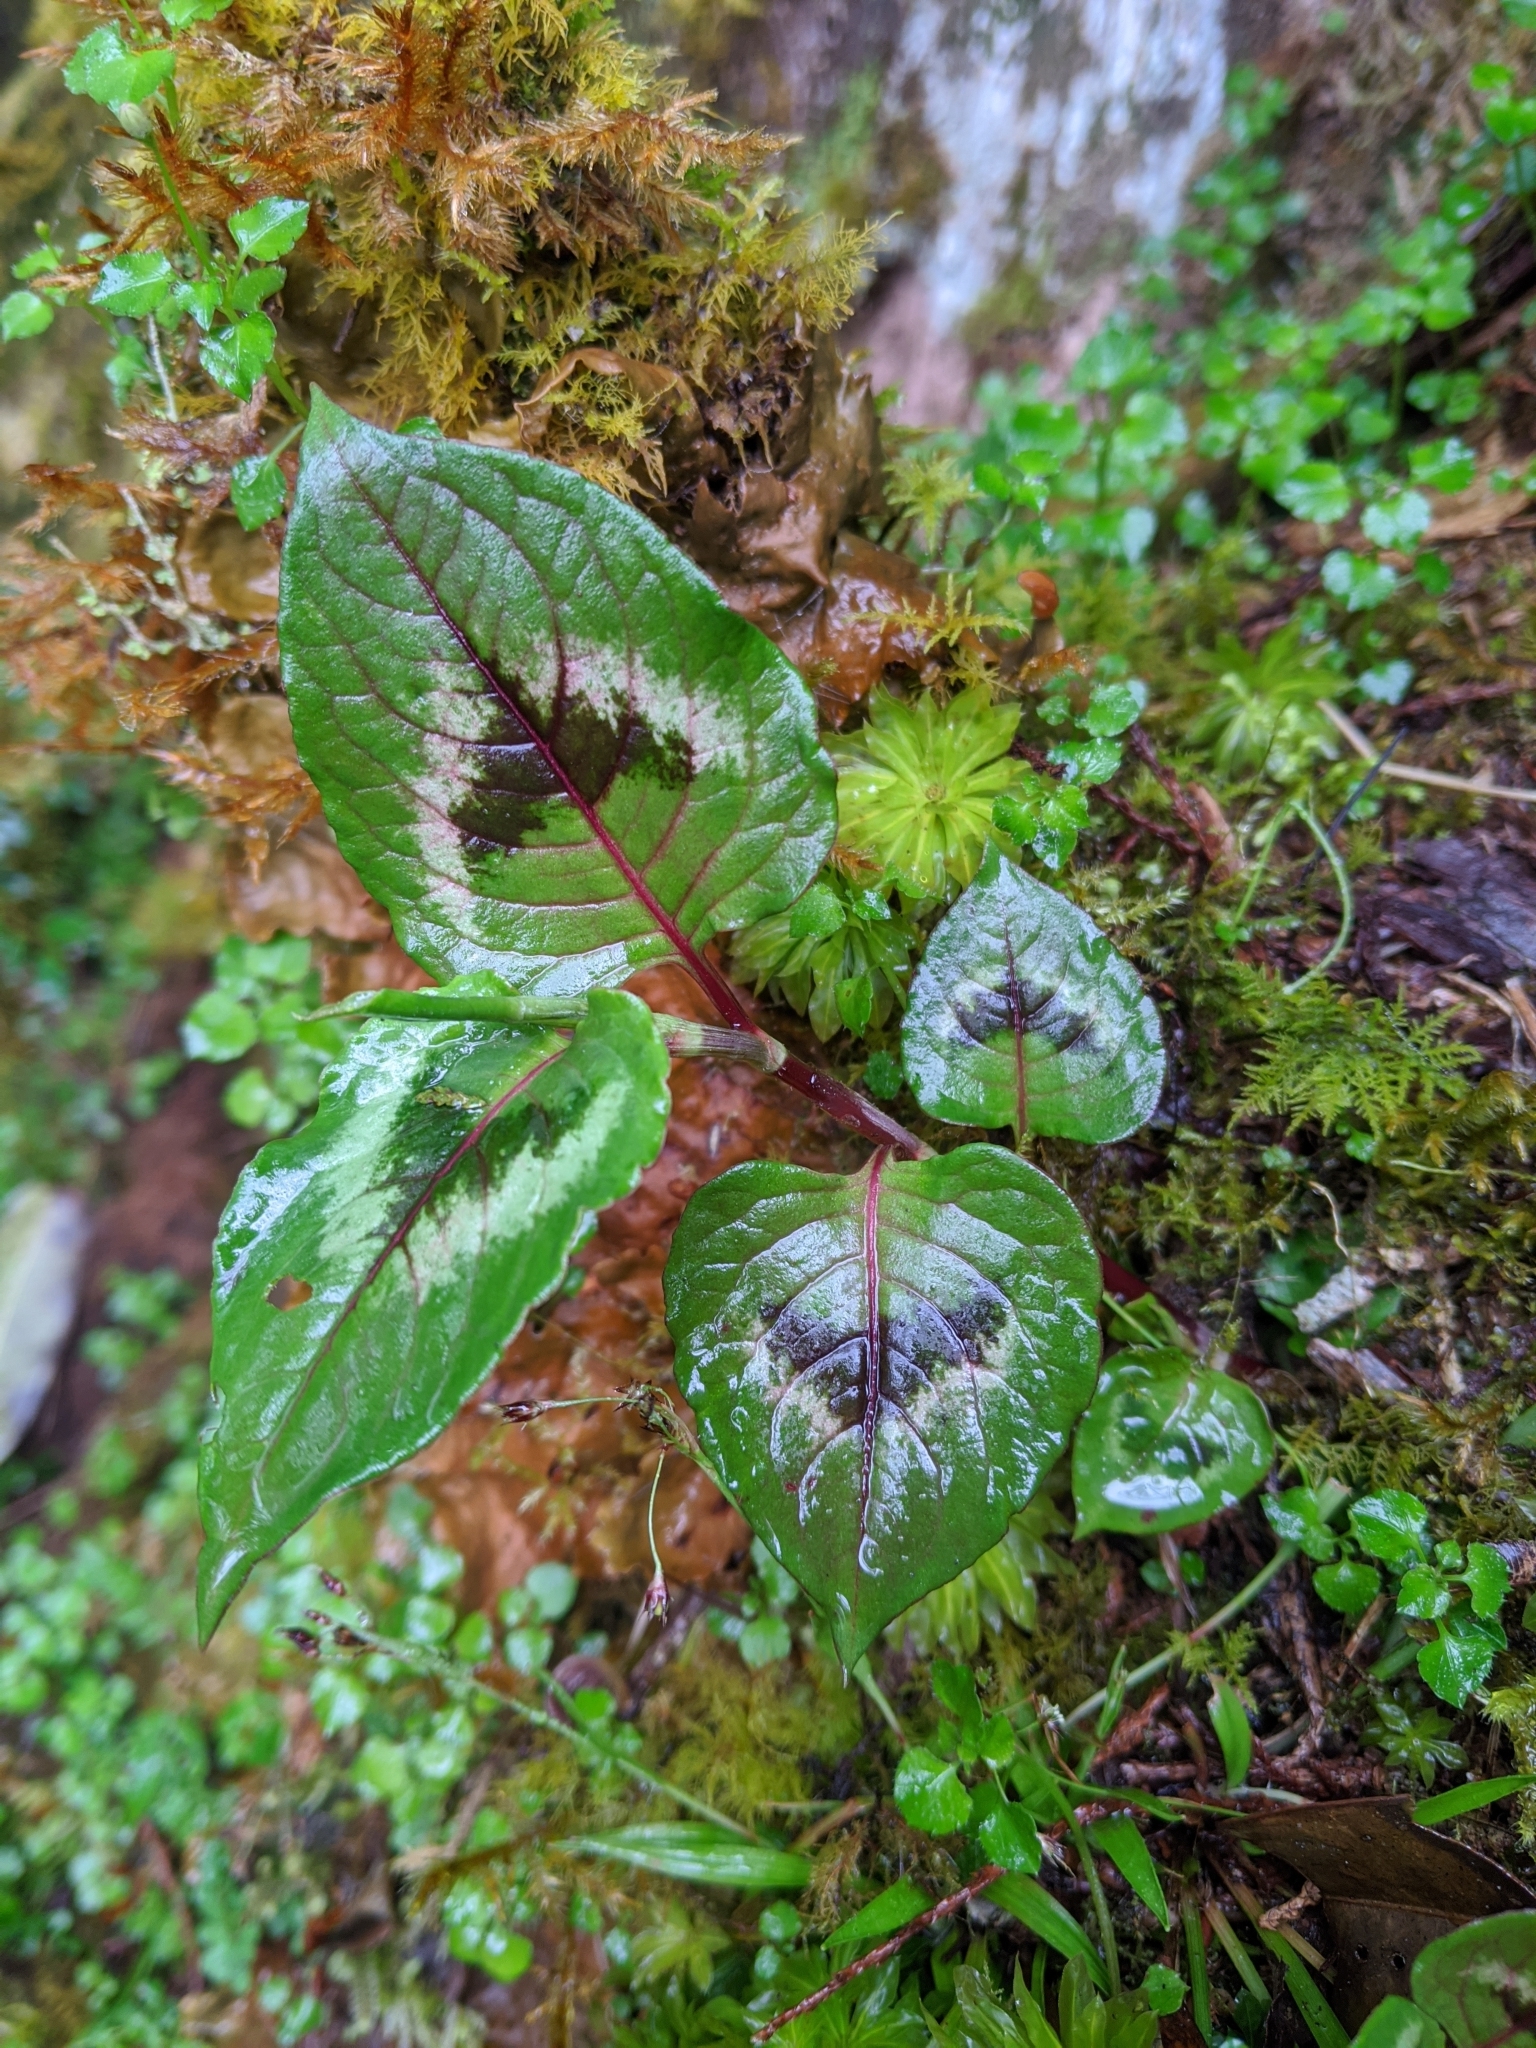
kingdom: Plantae
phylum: Tracheophyta
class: Magnoliopsida
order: Caryophyllales
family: Polygonaceae
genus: Persicaria
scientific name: Persicaria chinensis
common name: Chinese knotweed
